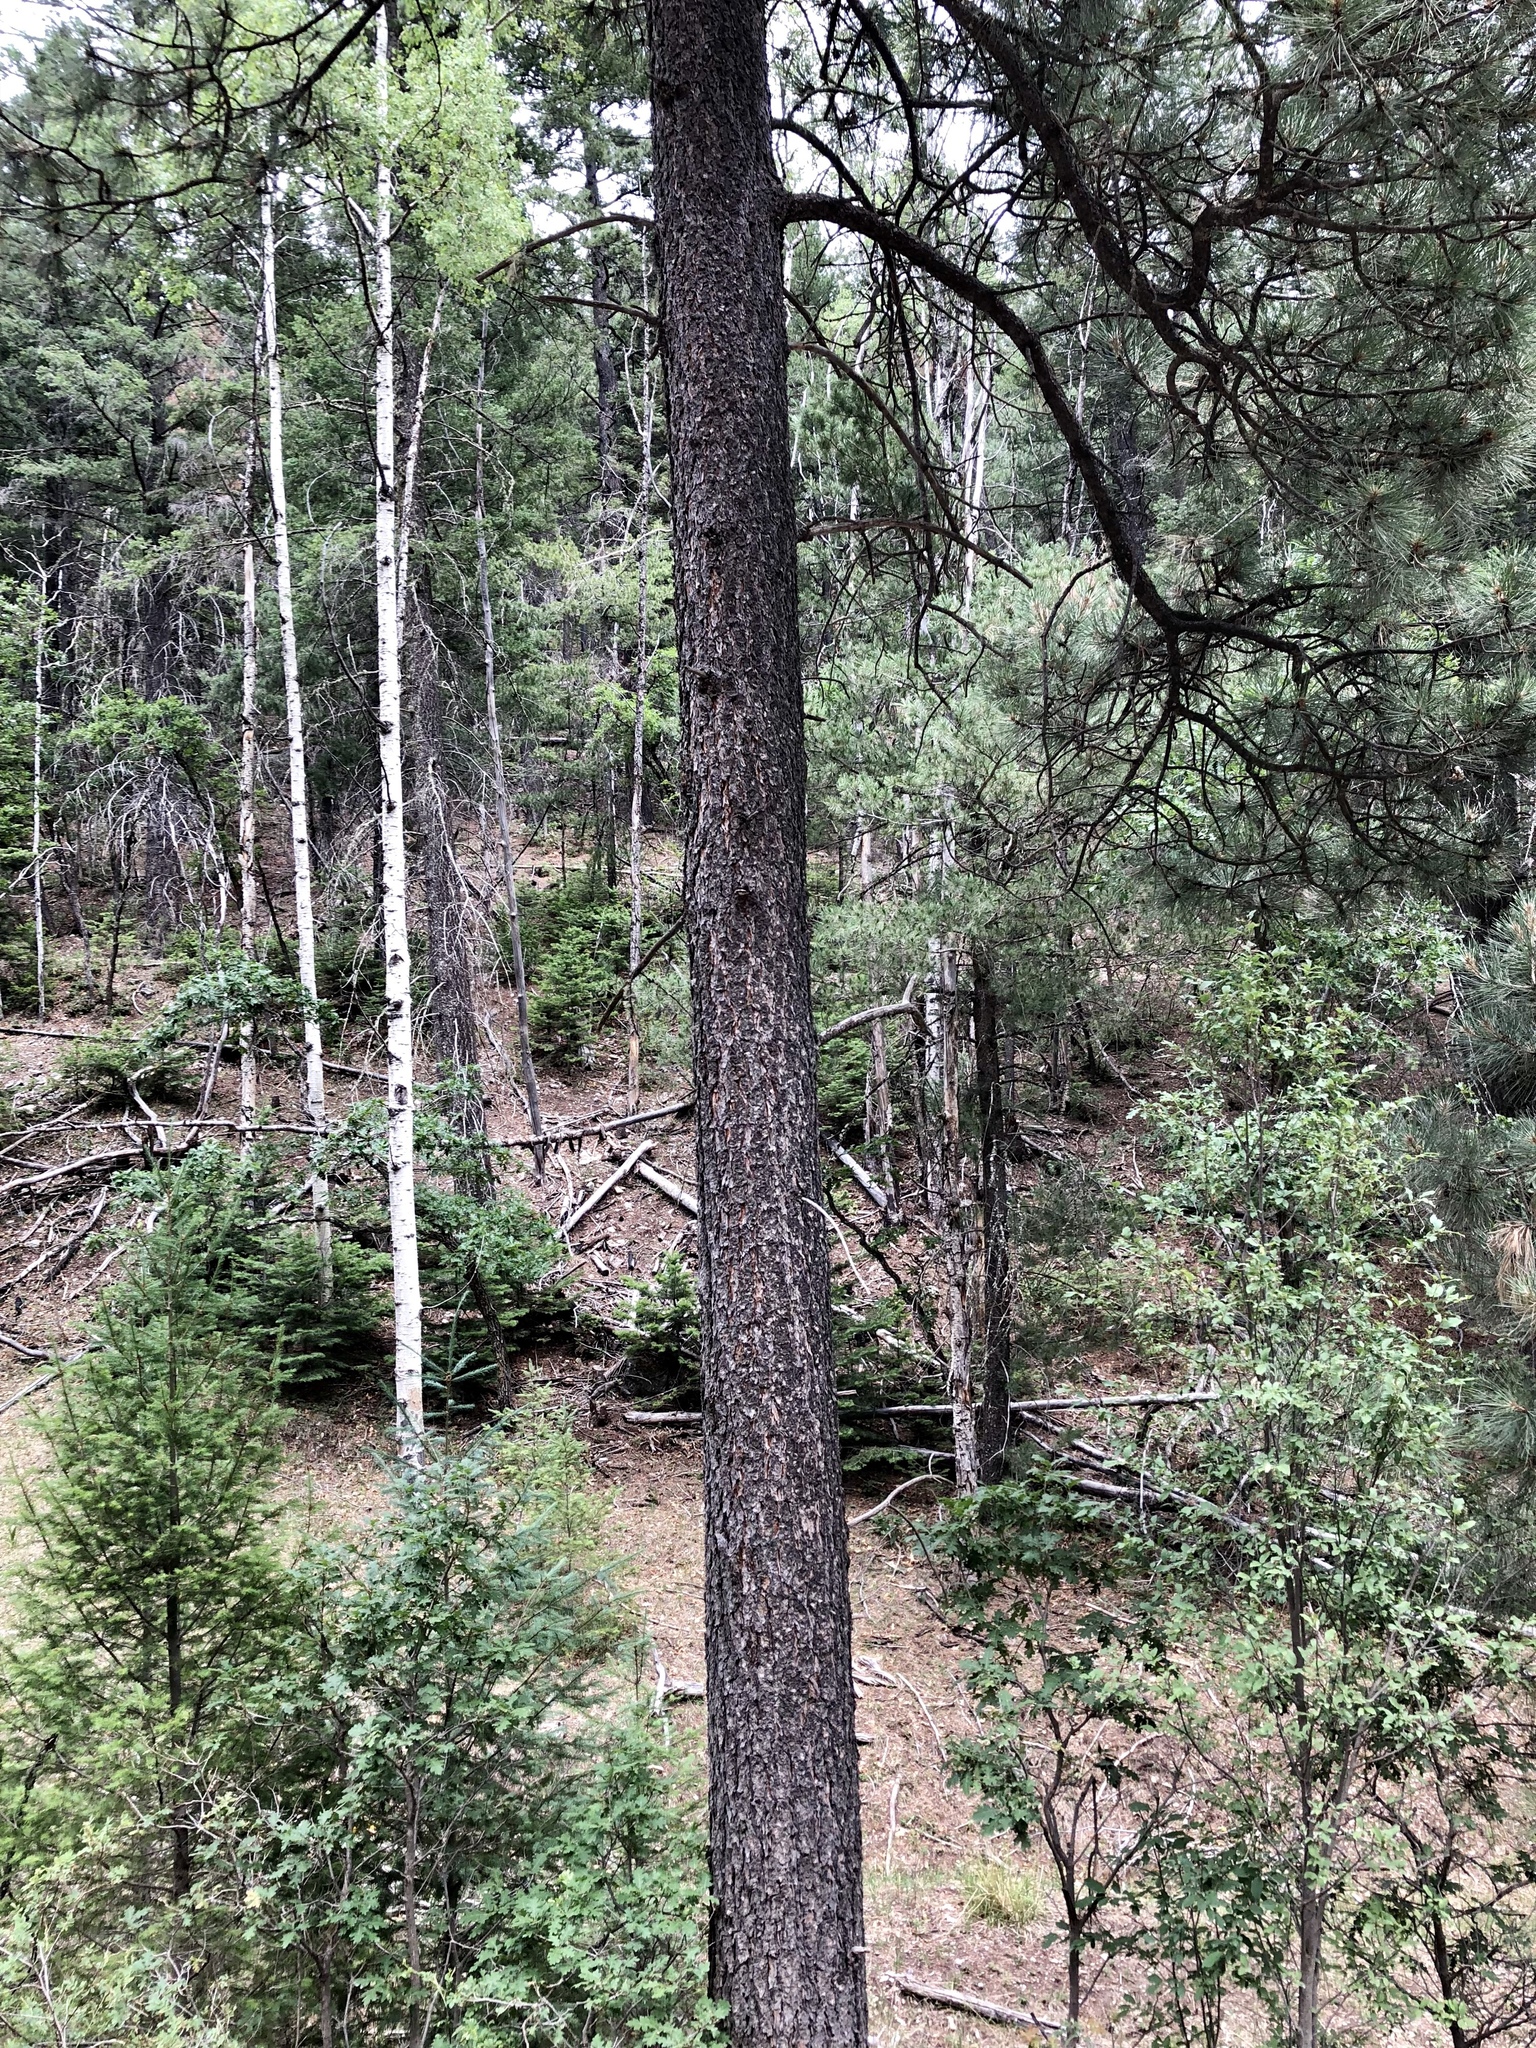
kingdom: Plantae
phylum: Tracheophyta
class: Pinopsida
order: Pinales
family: Pinaceae
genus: Pinus
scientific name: Pinus ponderosa
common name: Western yellow-pine
